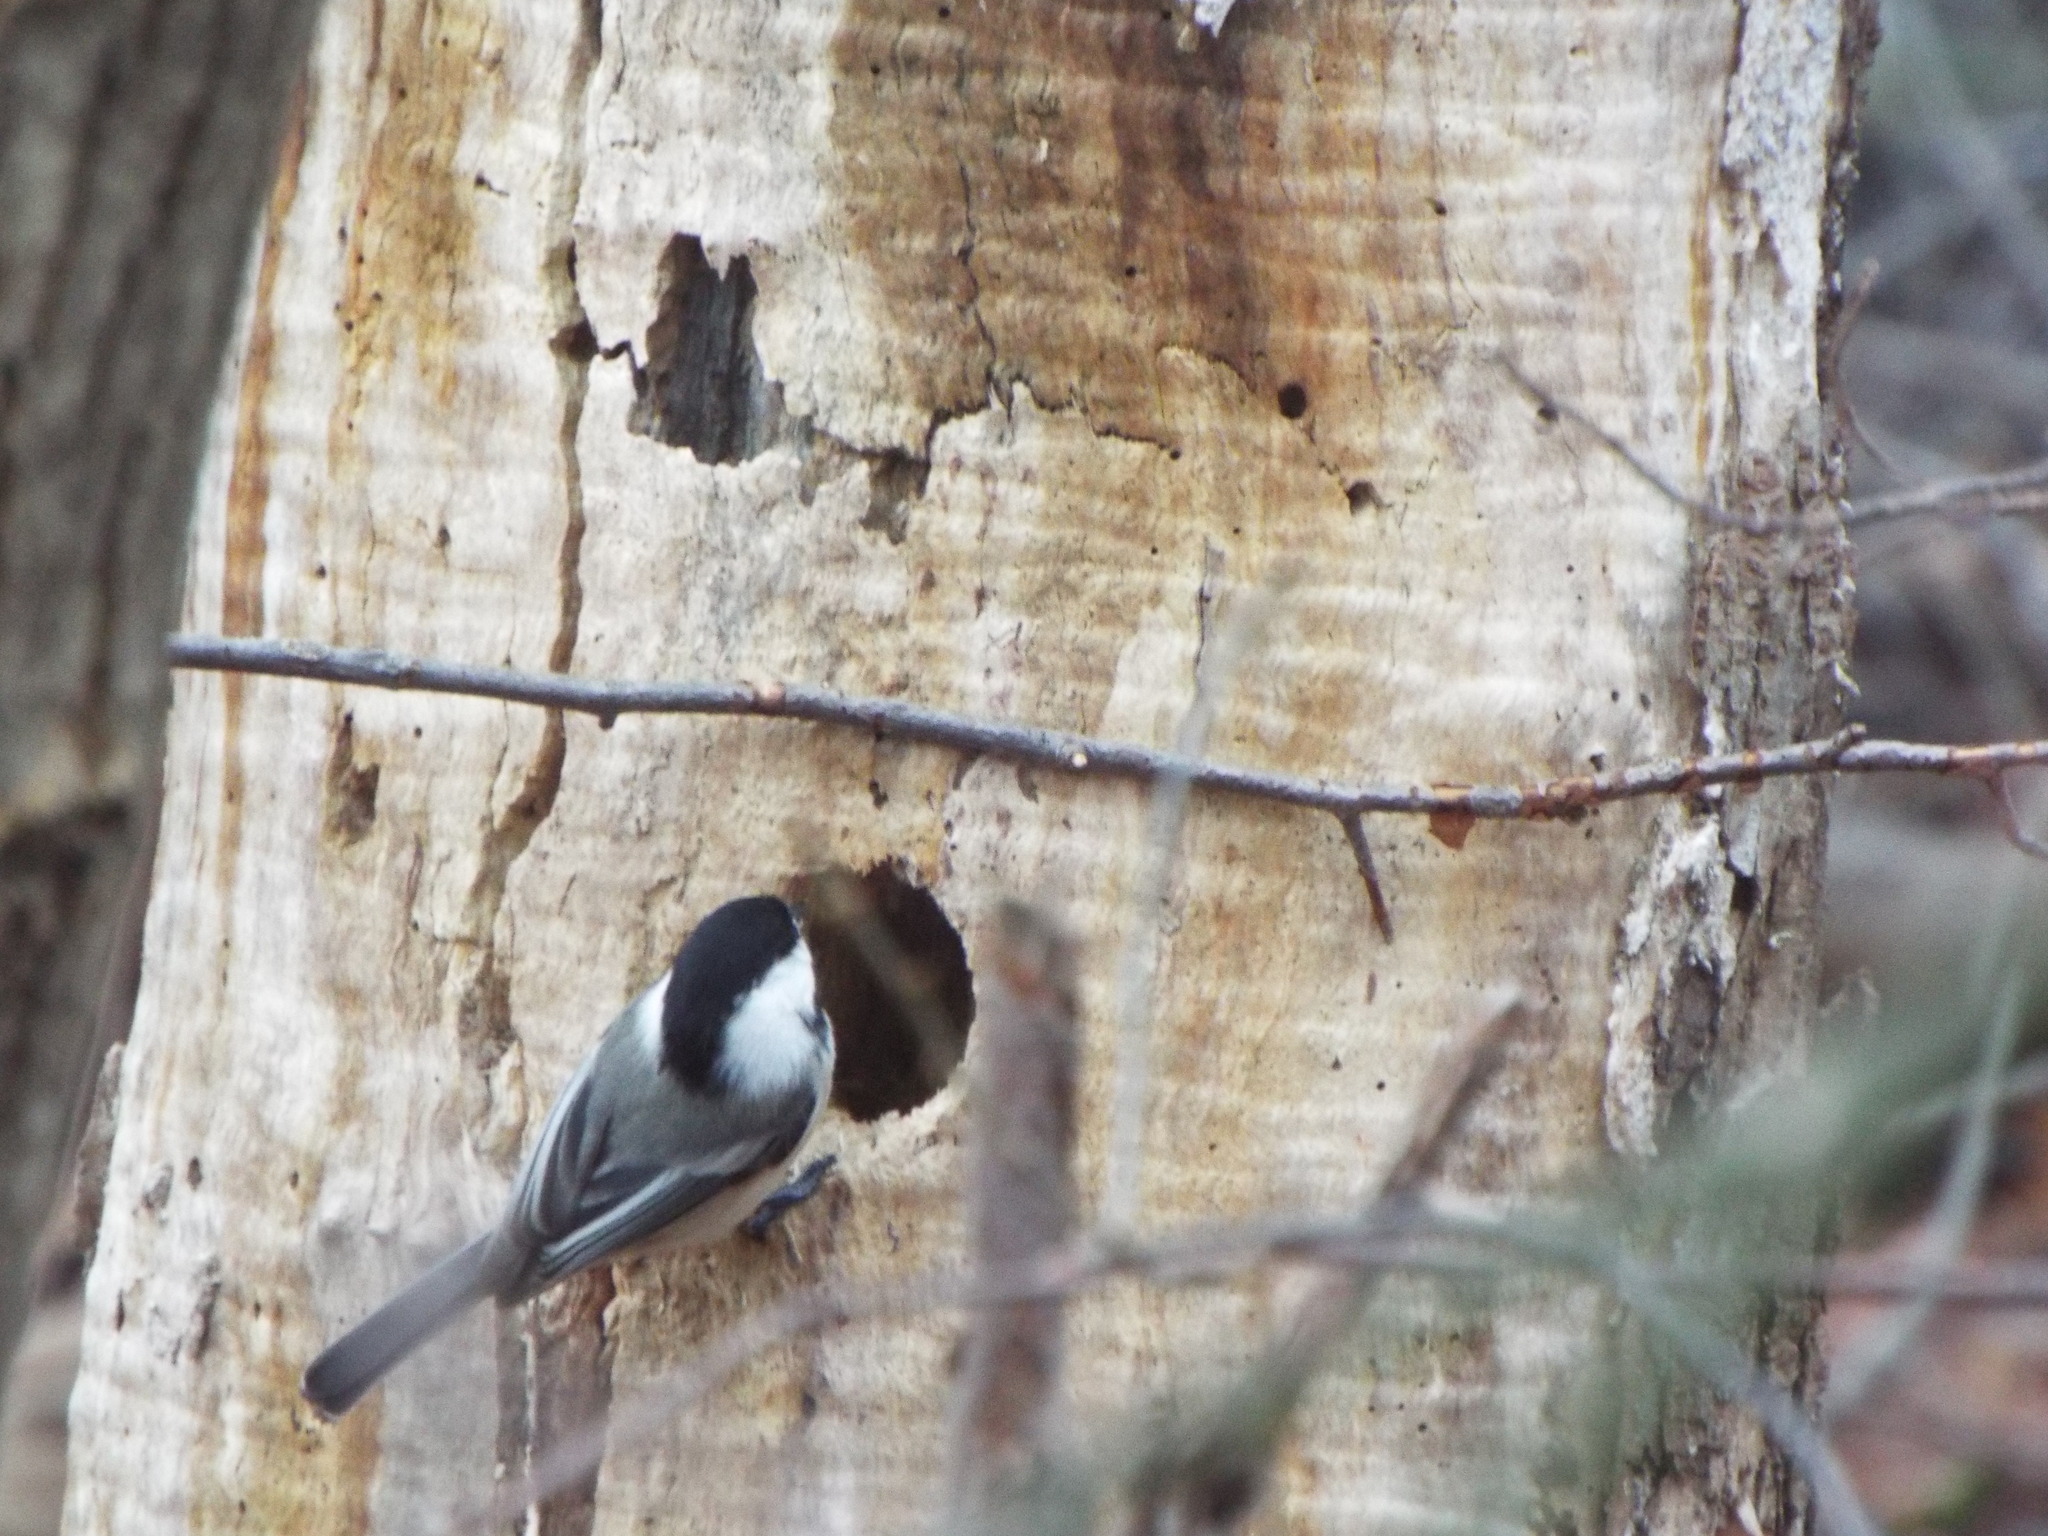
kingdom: Animalia
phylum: Chordata
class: Aves
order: Passeriformes
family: Paridae
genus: Poecile
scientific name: Poecile atricapillus
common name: Black-capped chickadee
